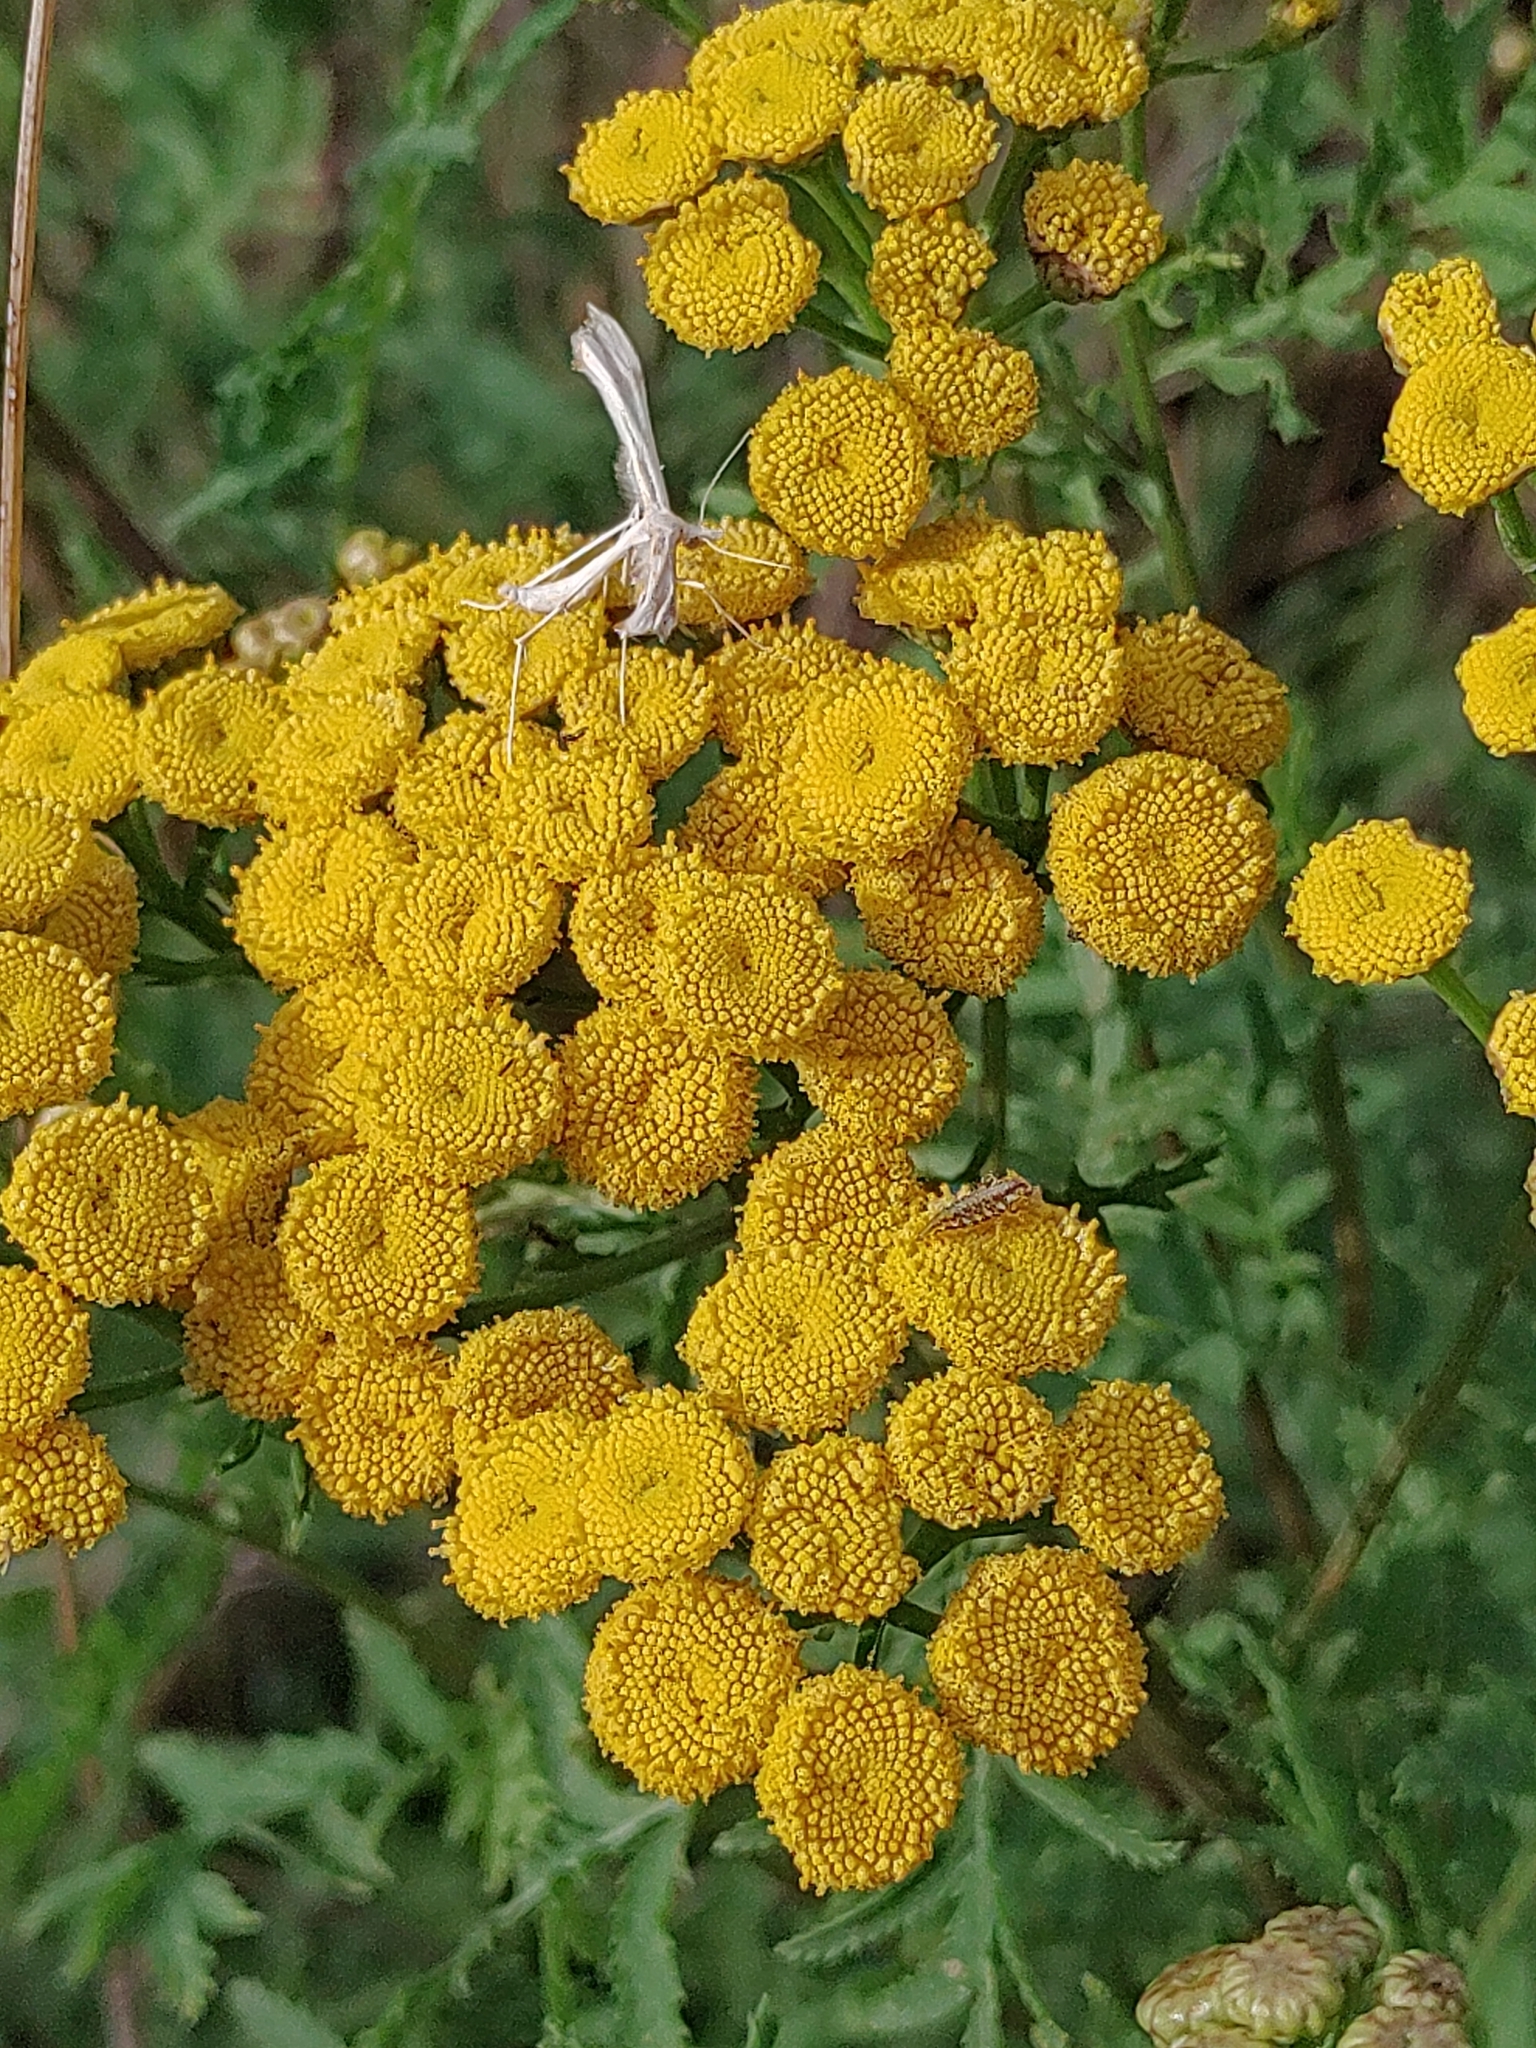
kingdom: Plantae
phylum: Tracheophyta
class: Magnoliopsida
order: Asterales
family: Asteraceae
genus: Tanacetum
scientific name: Tanacetum vulgare
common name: Common tansy
